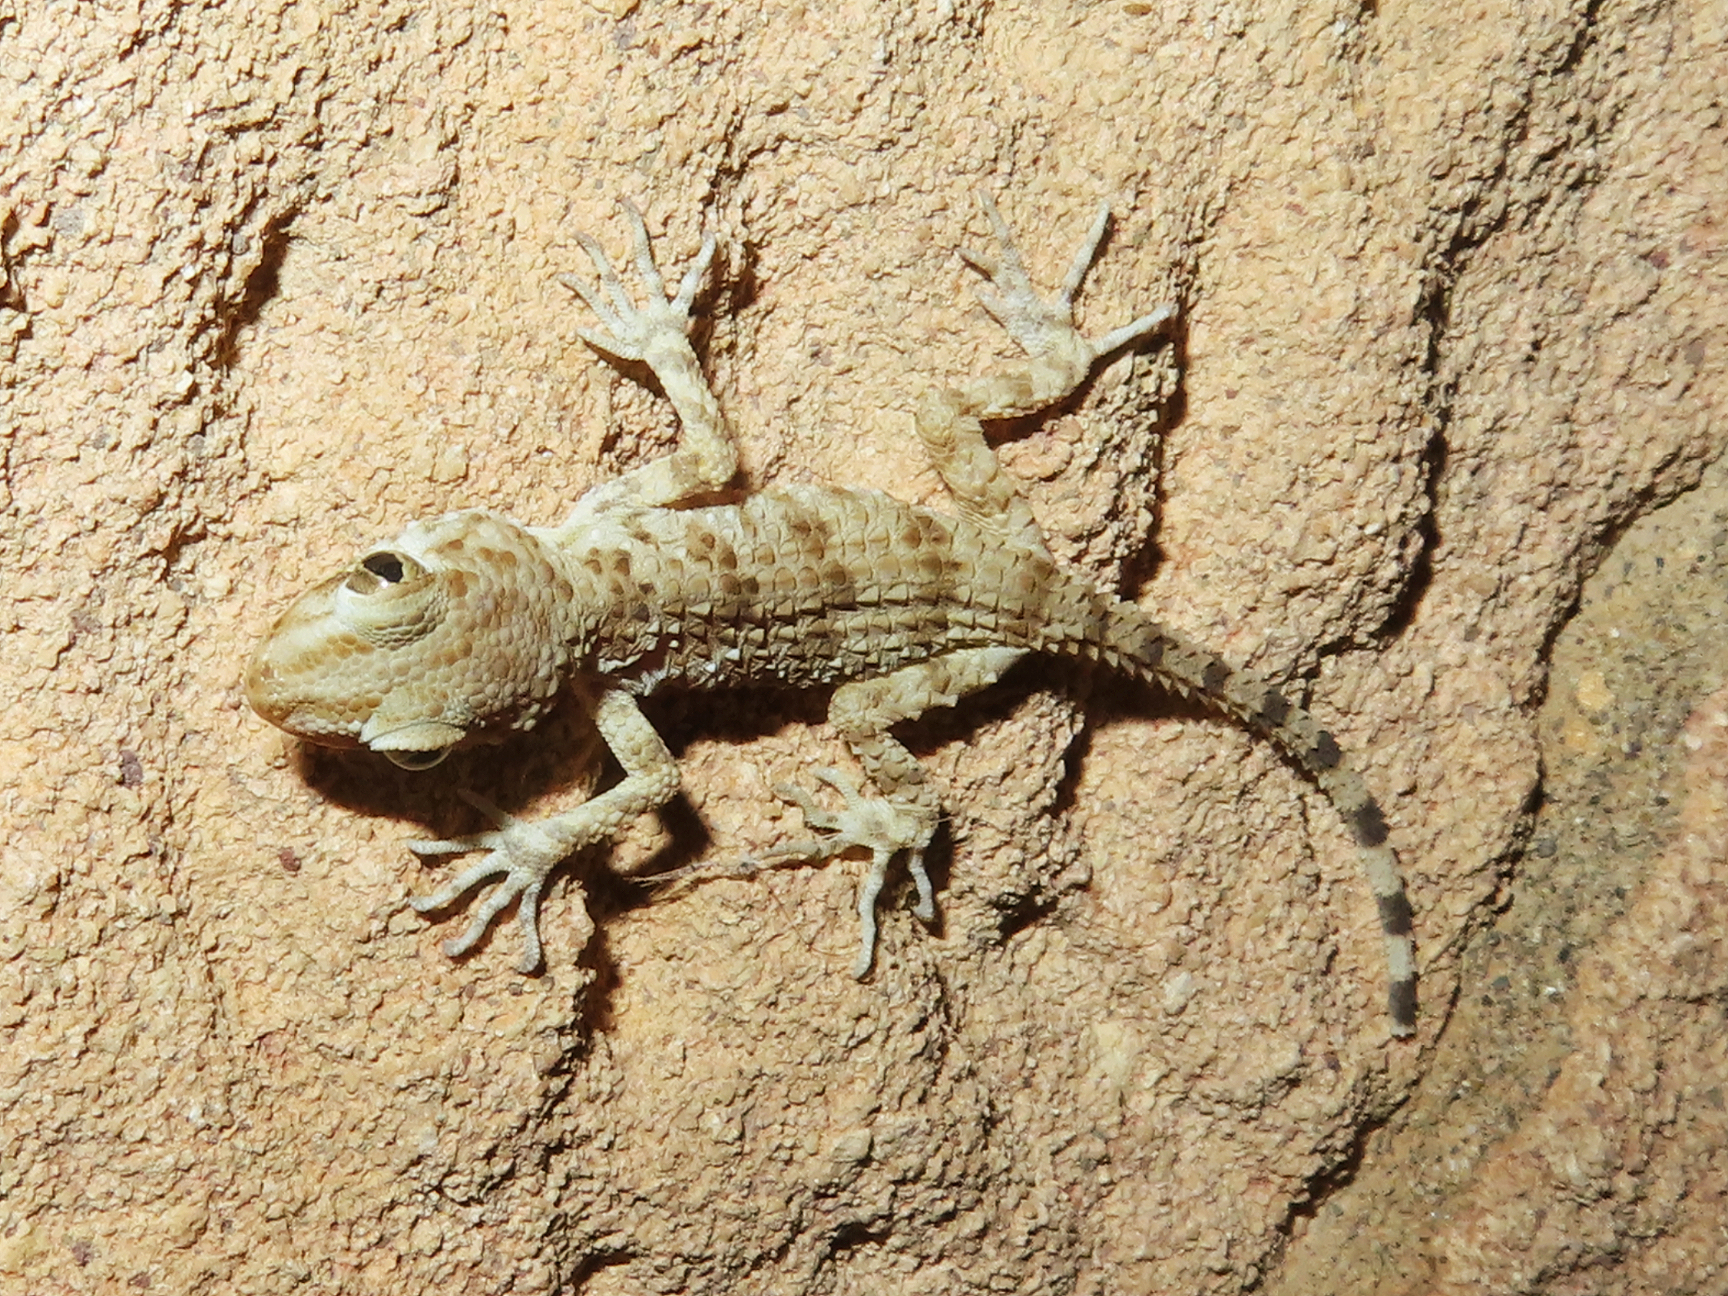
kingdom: Animalia
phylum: Chordata
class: Squamata
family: Gekkonidae
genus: Tenuidactylus
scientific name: Tenuidactylus caspius
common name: Caspian bent-toed gecko
